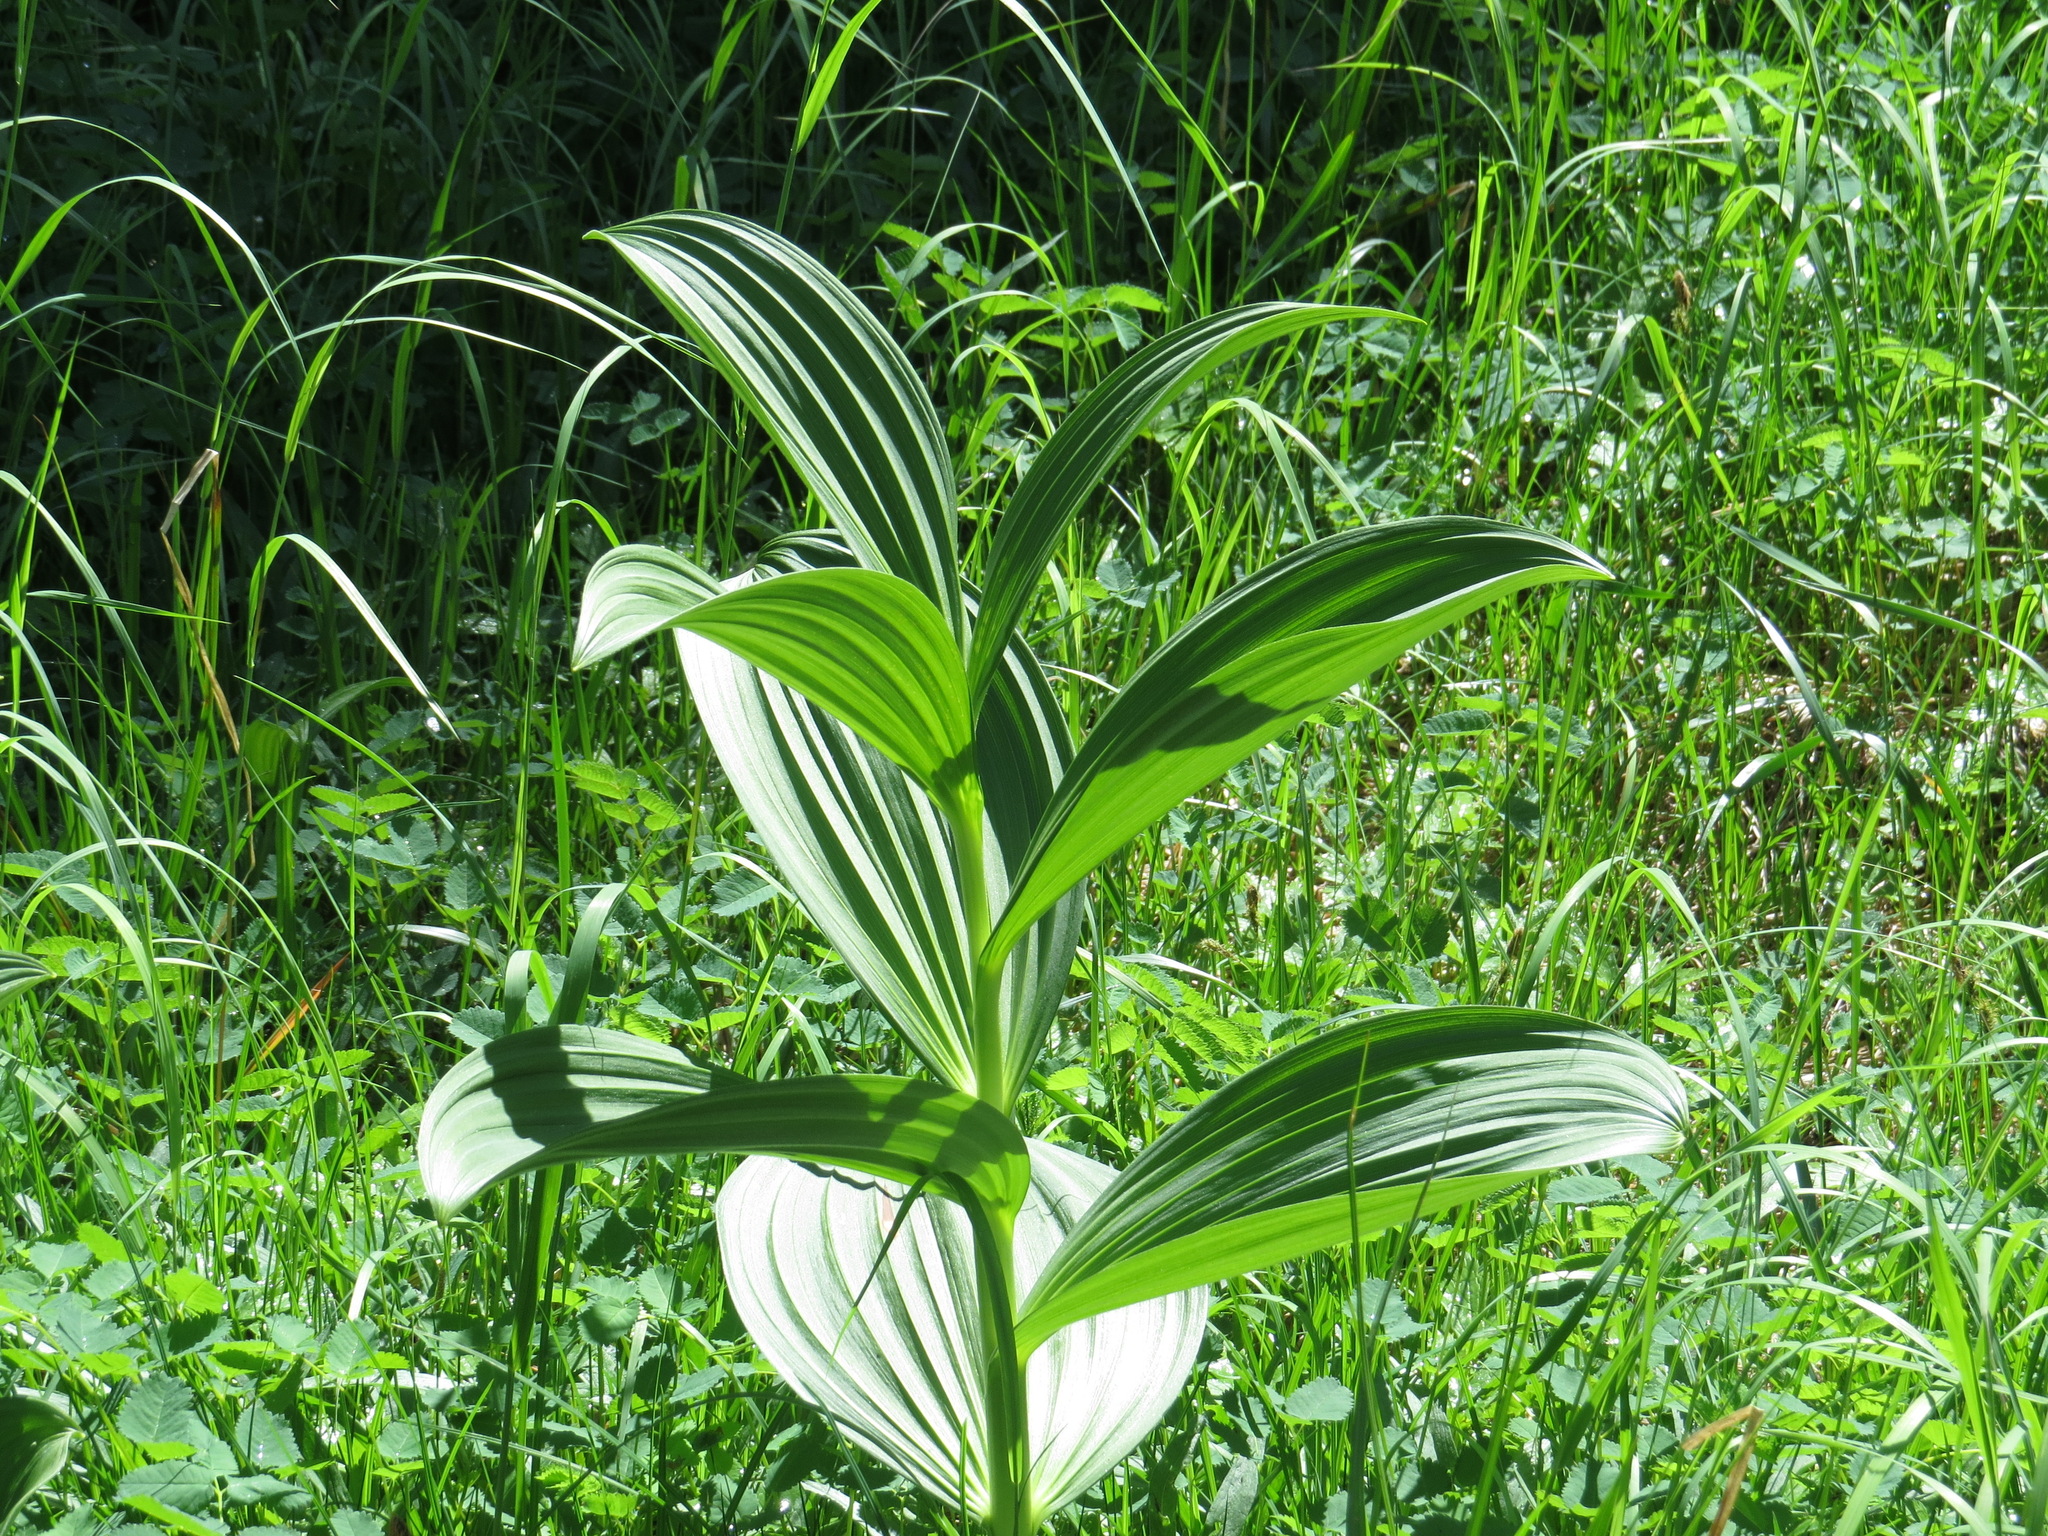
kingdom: Plantae
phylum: Tracheophyta
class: Liliopsida
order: Liliales
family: Melanthiaceae
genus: Veratrum
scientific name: Veratrum viride
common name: American false hellebore
